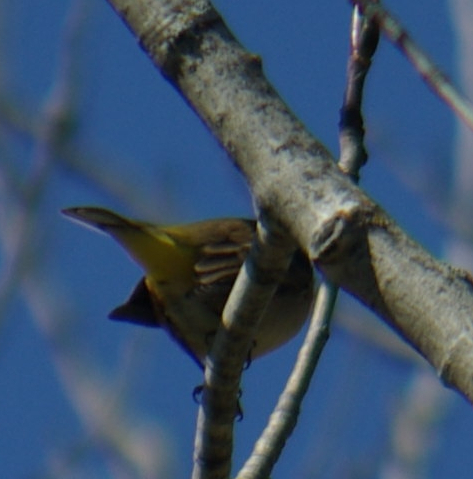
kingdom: Animalia
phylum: Chordata
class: Aves
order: Passeriformes
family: Parulidae
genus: Setophaga
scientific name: Setophaga palmarum
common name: Palm warbler
